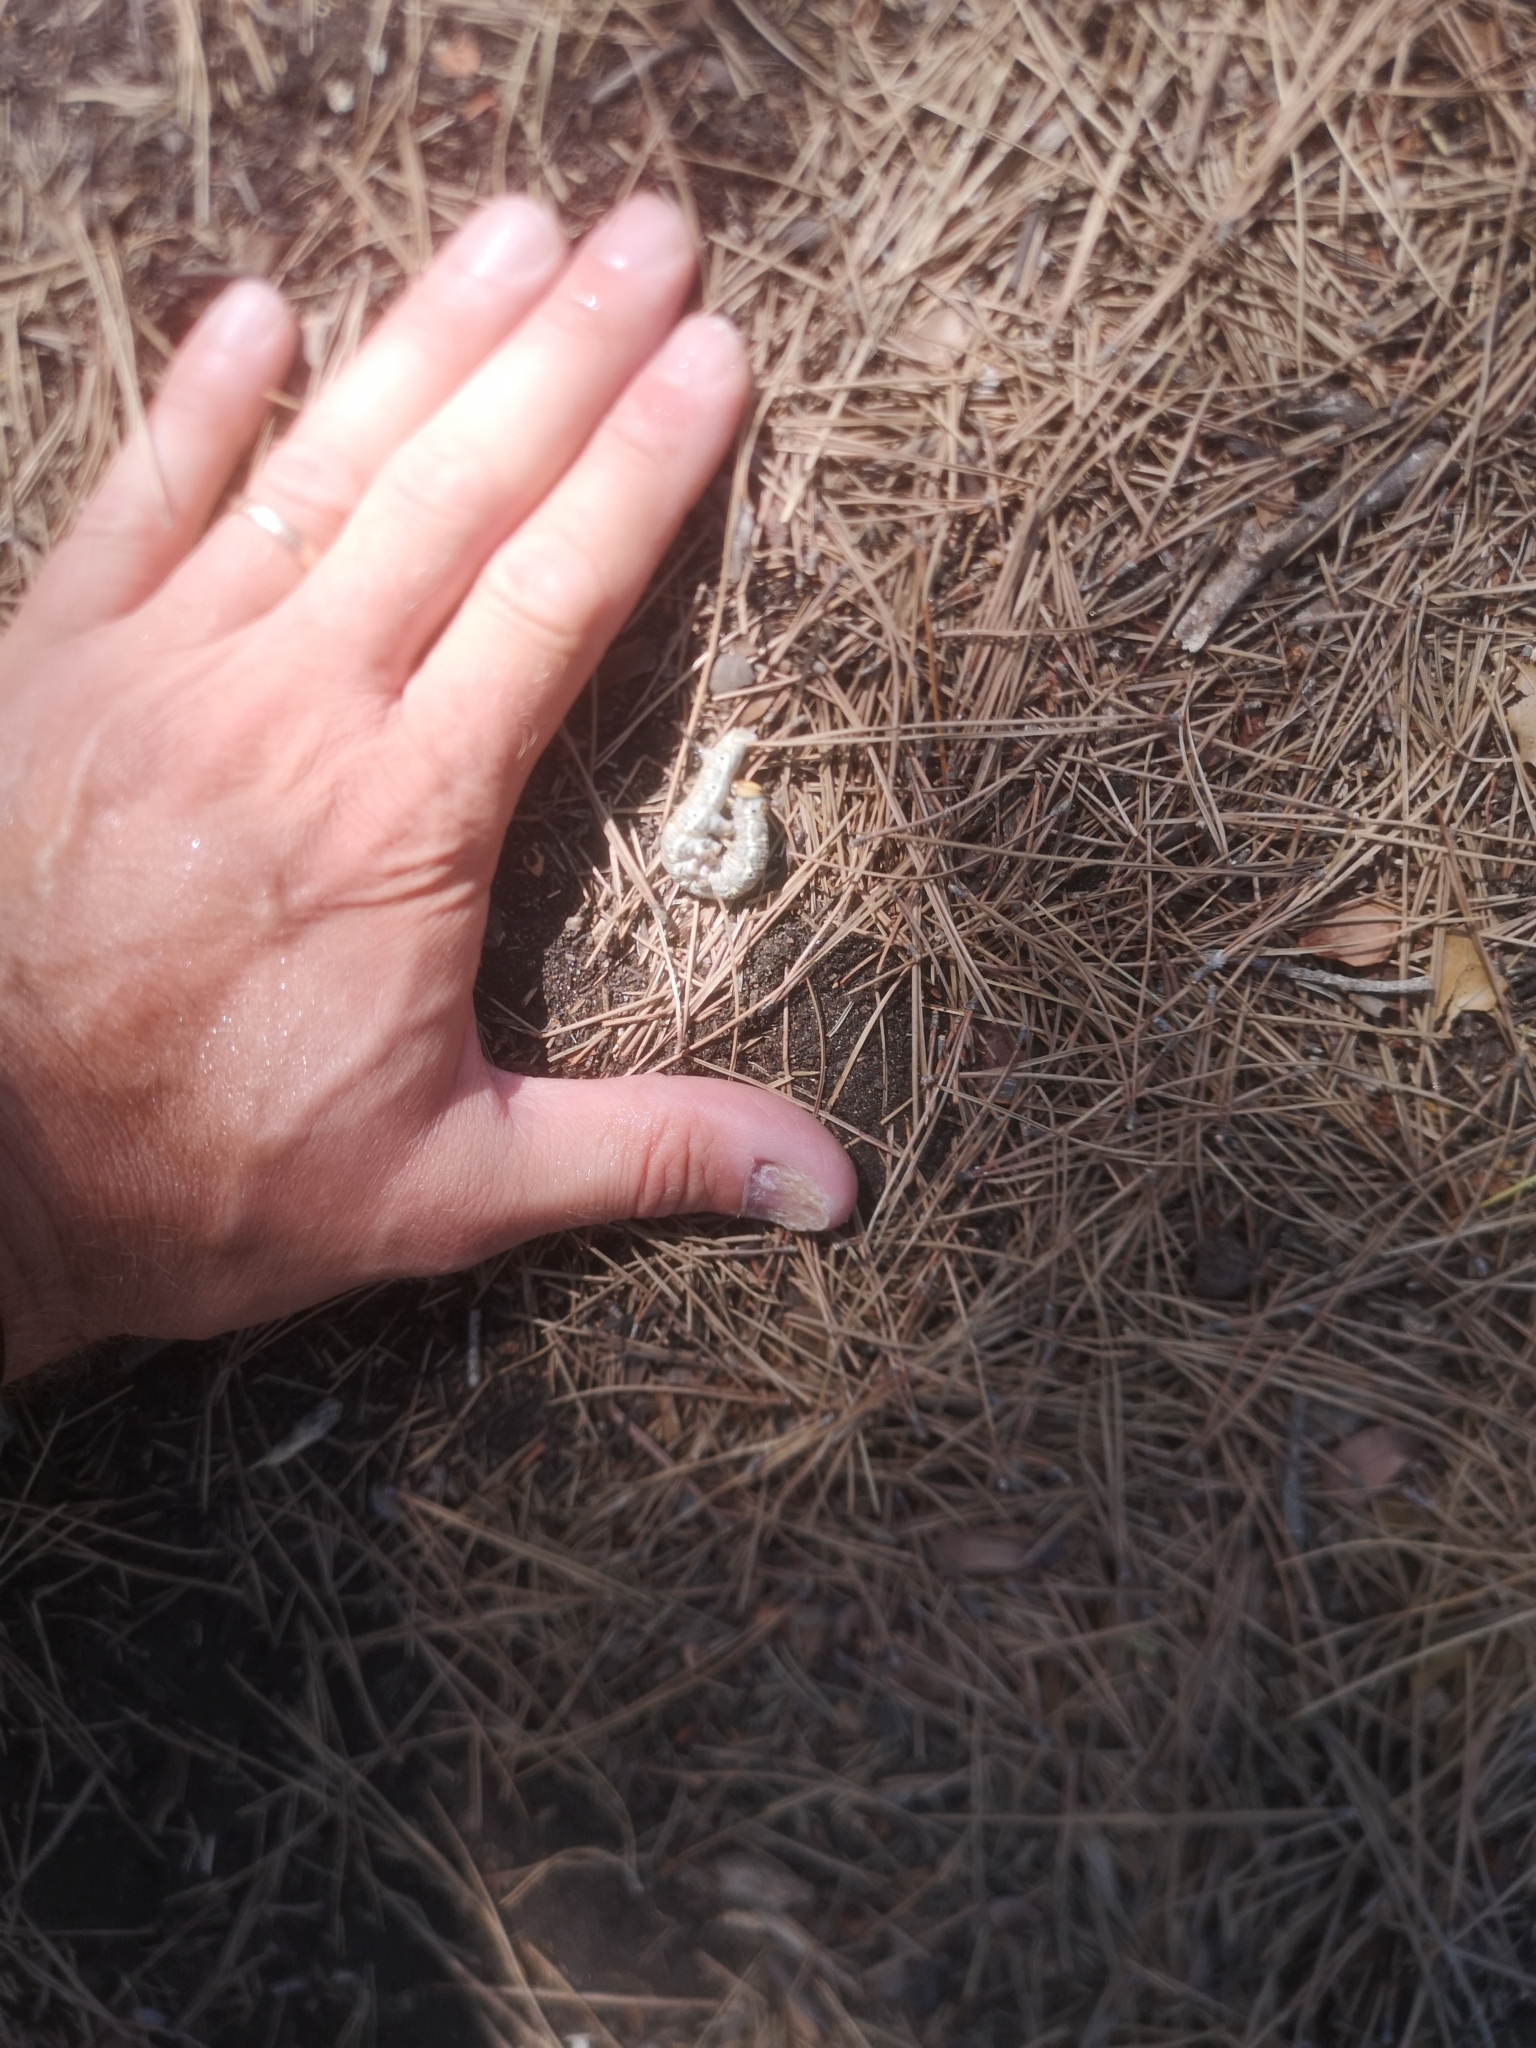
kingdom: Animalia
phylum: Arthropoda
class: Insecta
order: Lepidoptera
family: Sphingidae
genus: Sphinx
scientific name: Sphinx maurorum
